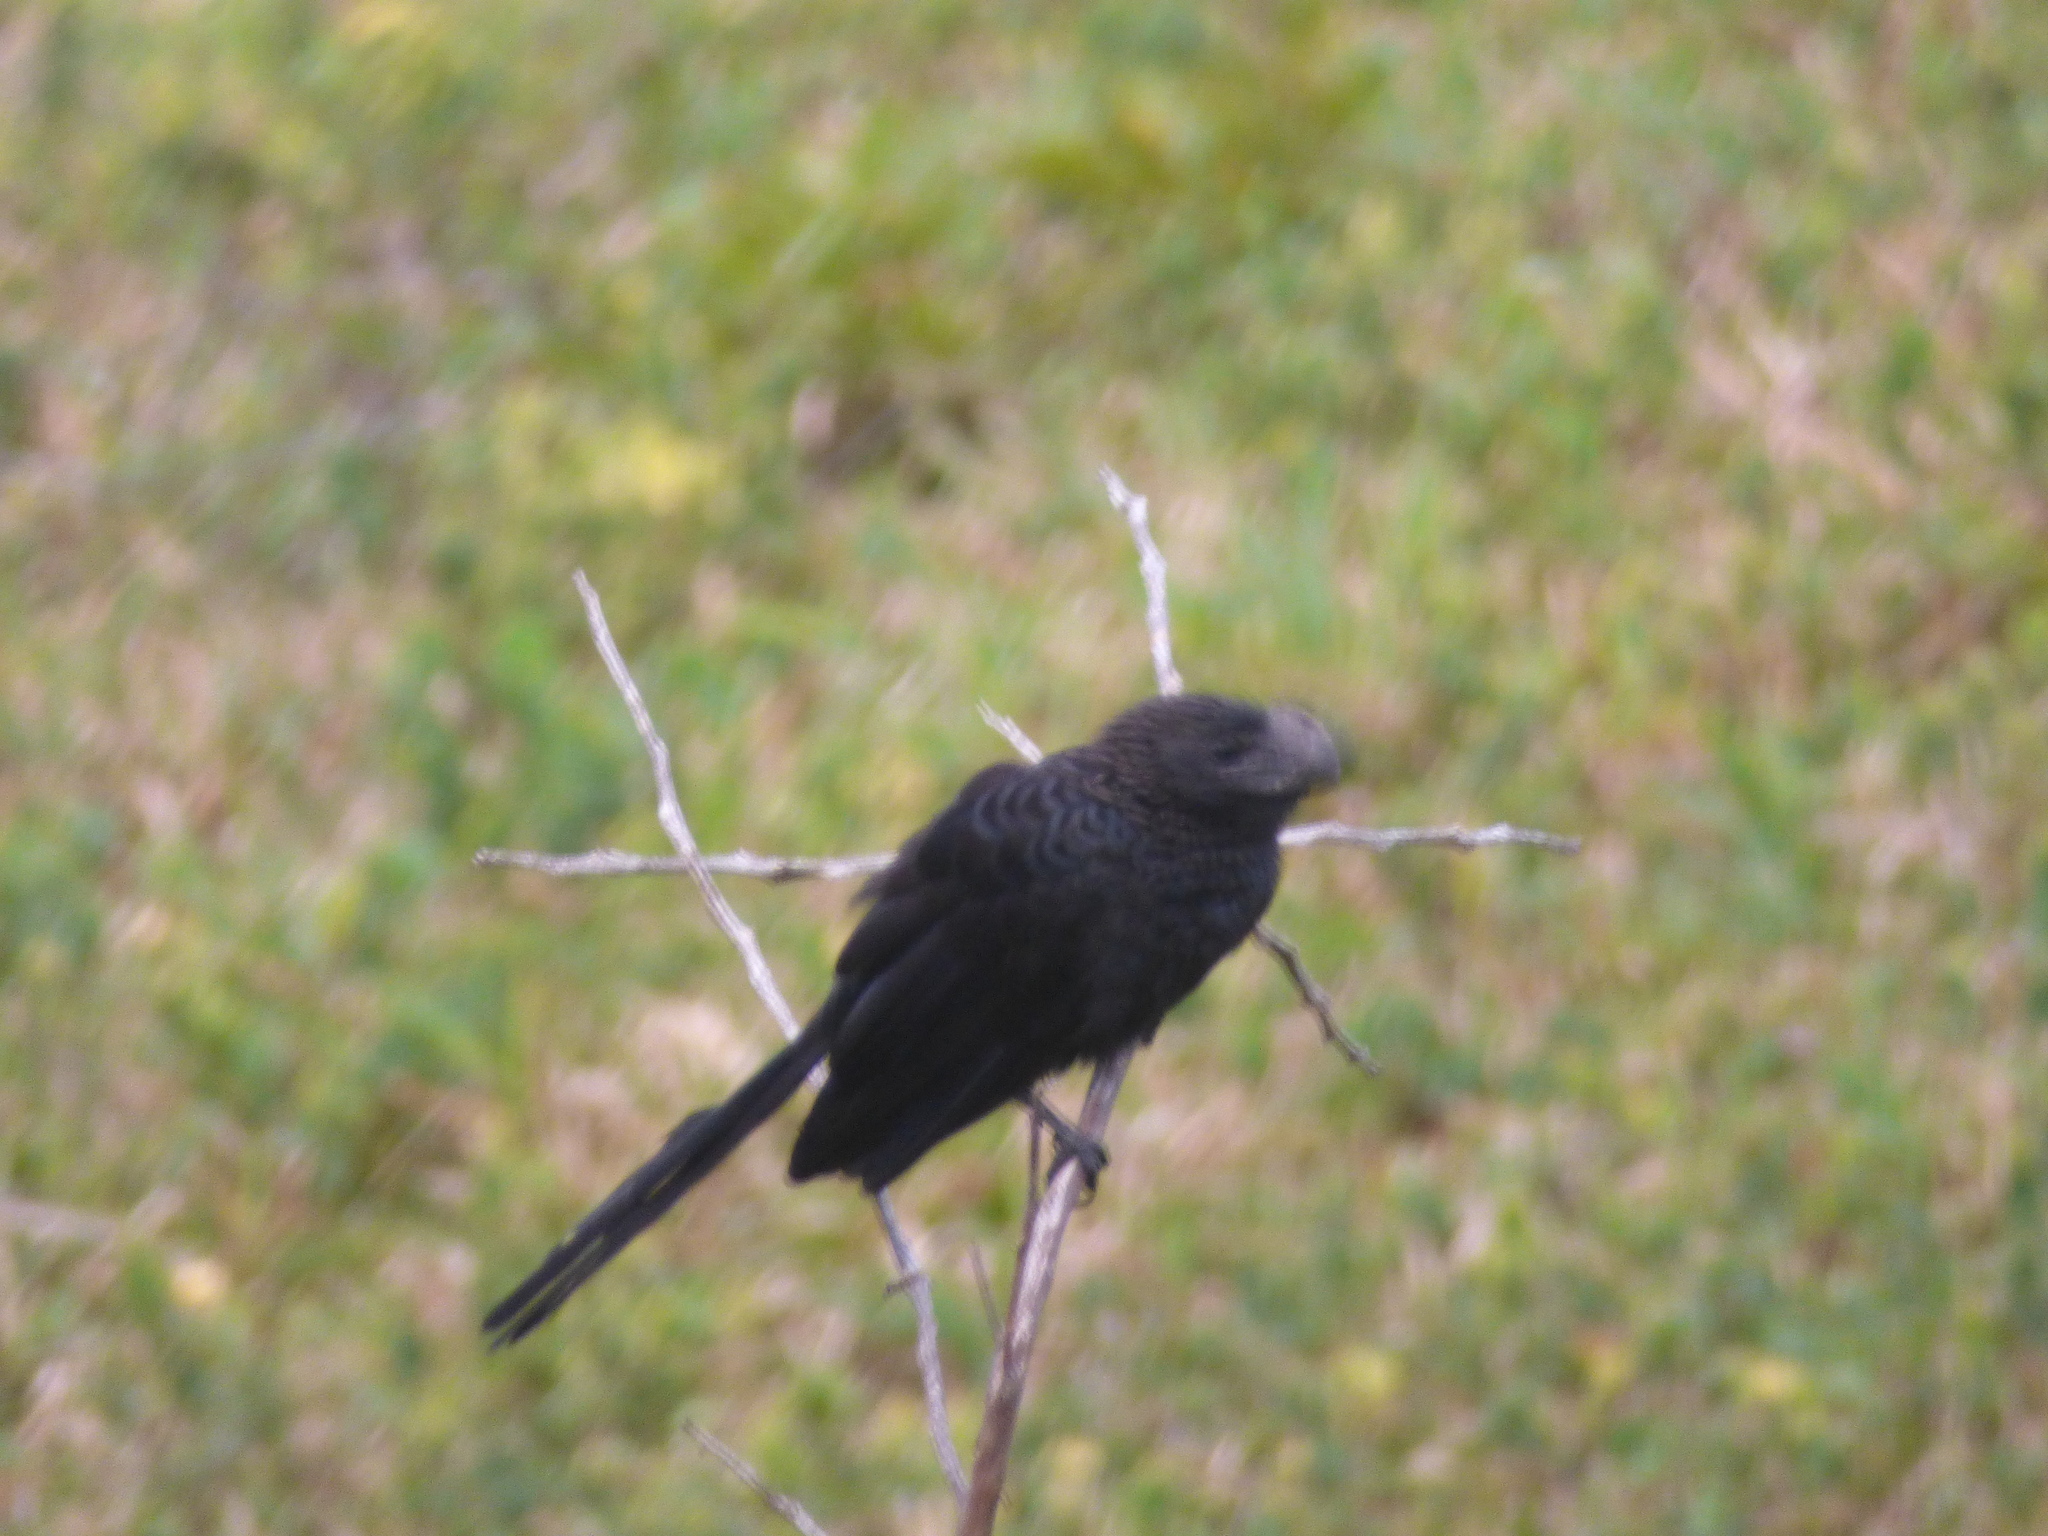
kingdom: Animalia
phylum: Chordata
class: Aves
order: Cuculiformes
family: Cuculidae
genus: Crotophaga
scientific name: Crotophaga ani
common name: Smooth-billed ani
